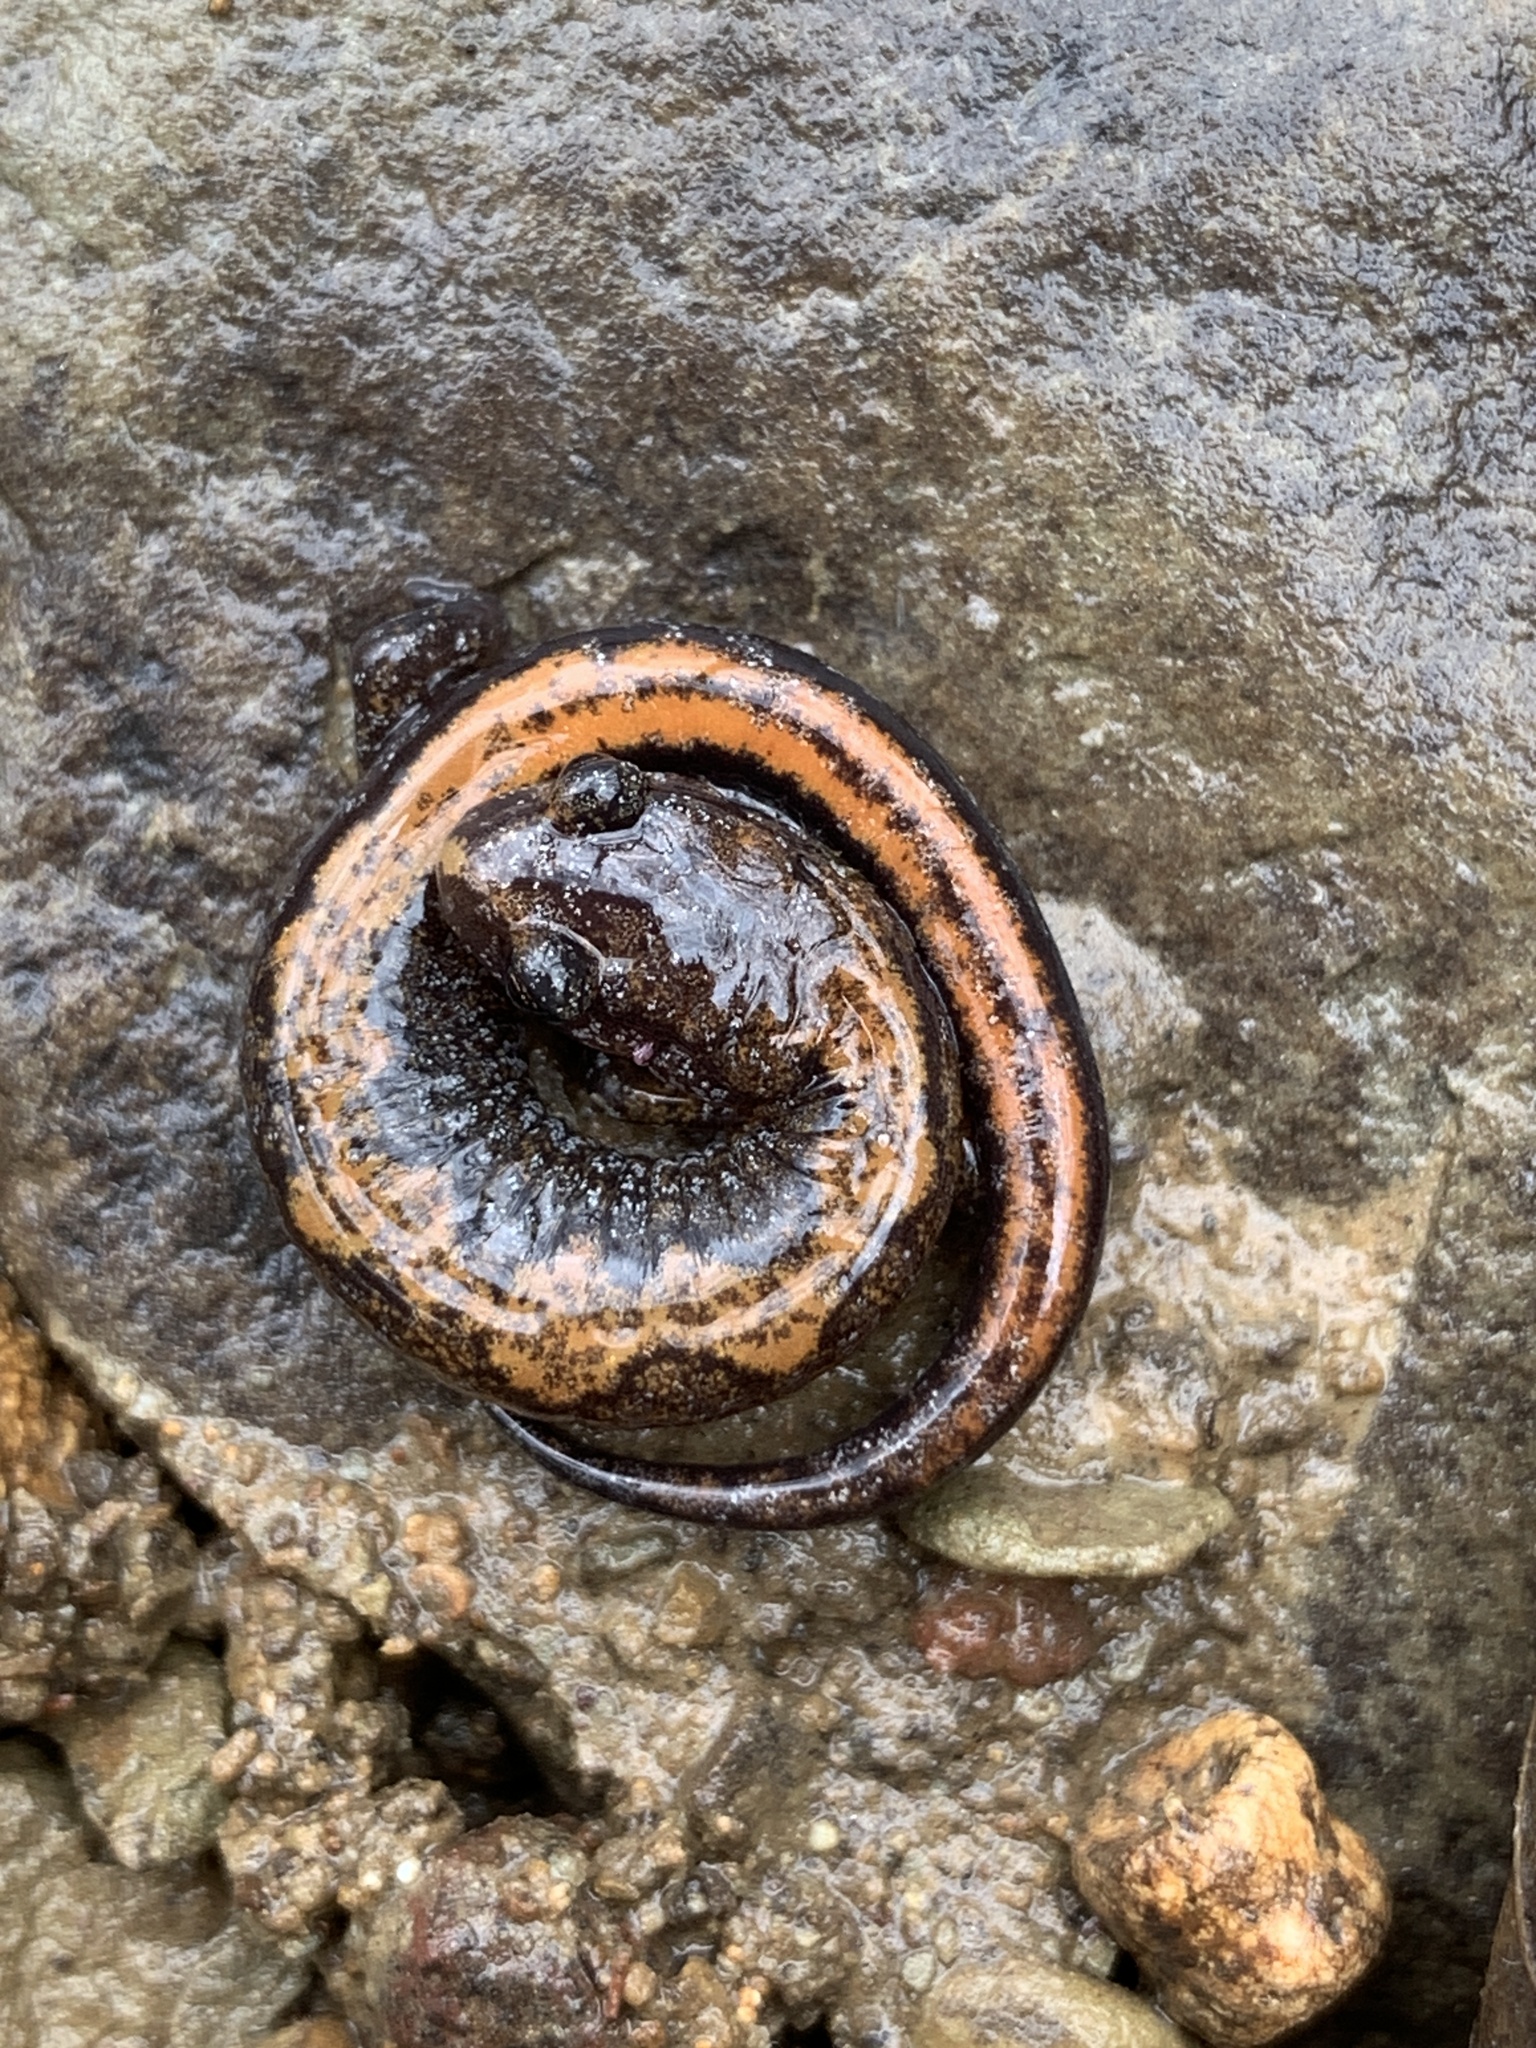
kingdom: Animalia
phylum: Chordata
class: Amphibia
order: Caudata
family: Plethodontidae
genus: Plethodon
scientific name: Plethodon dorsalis
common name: Northern zigzag salamander
